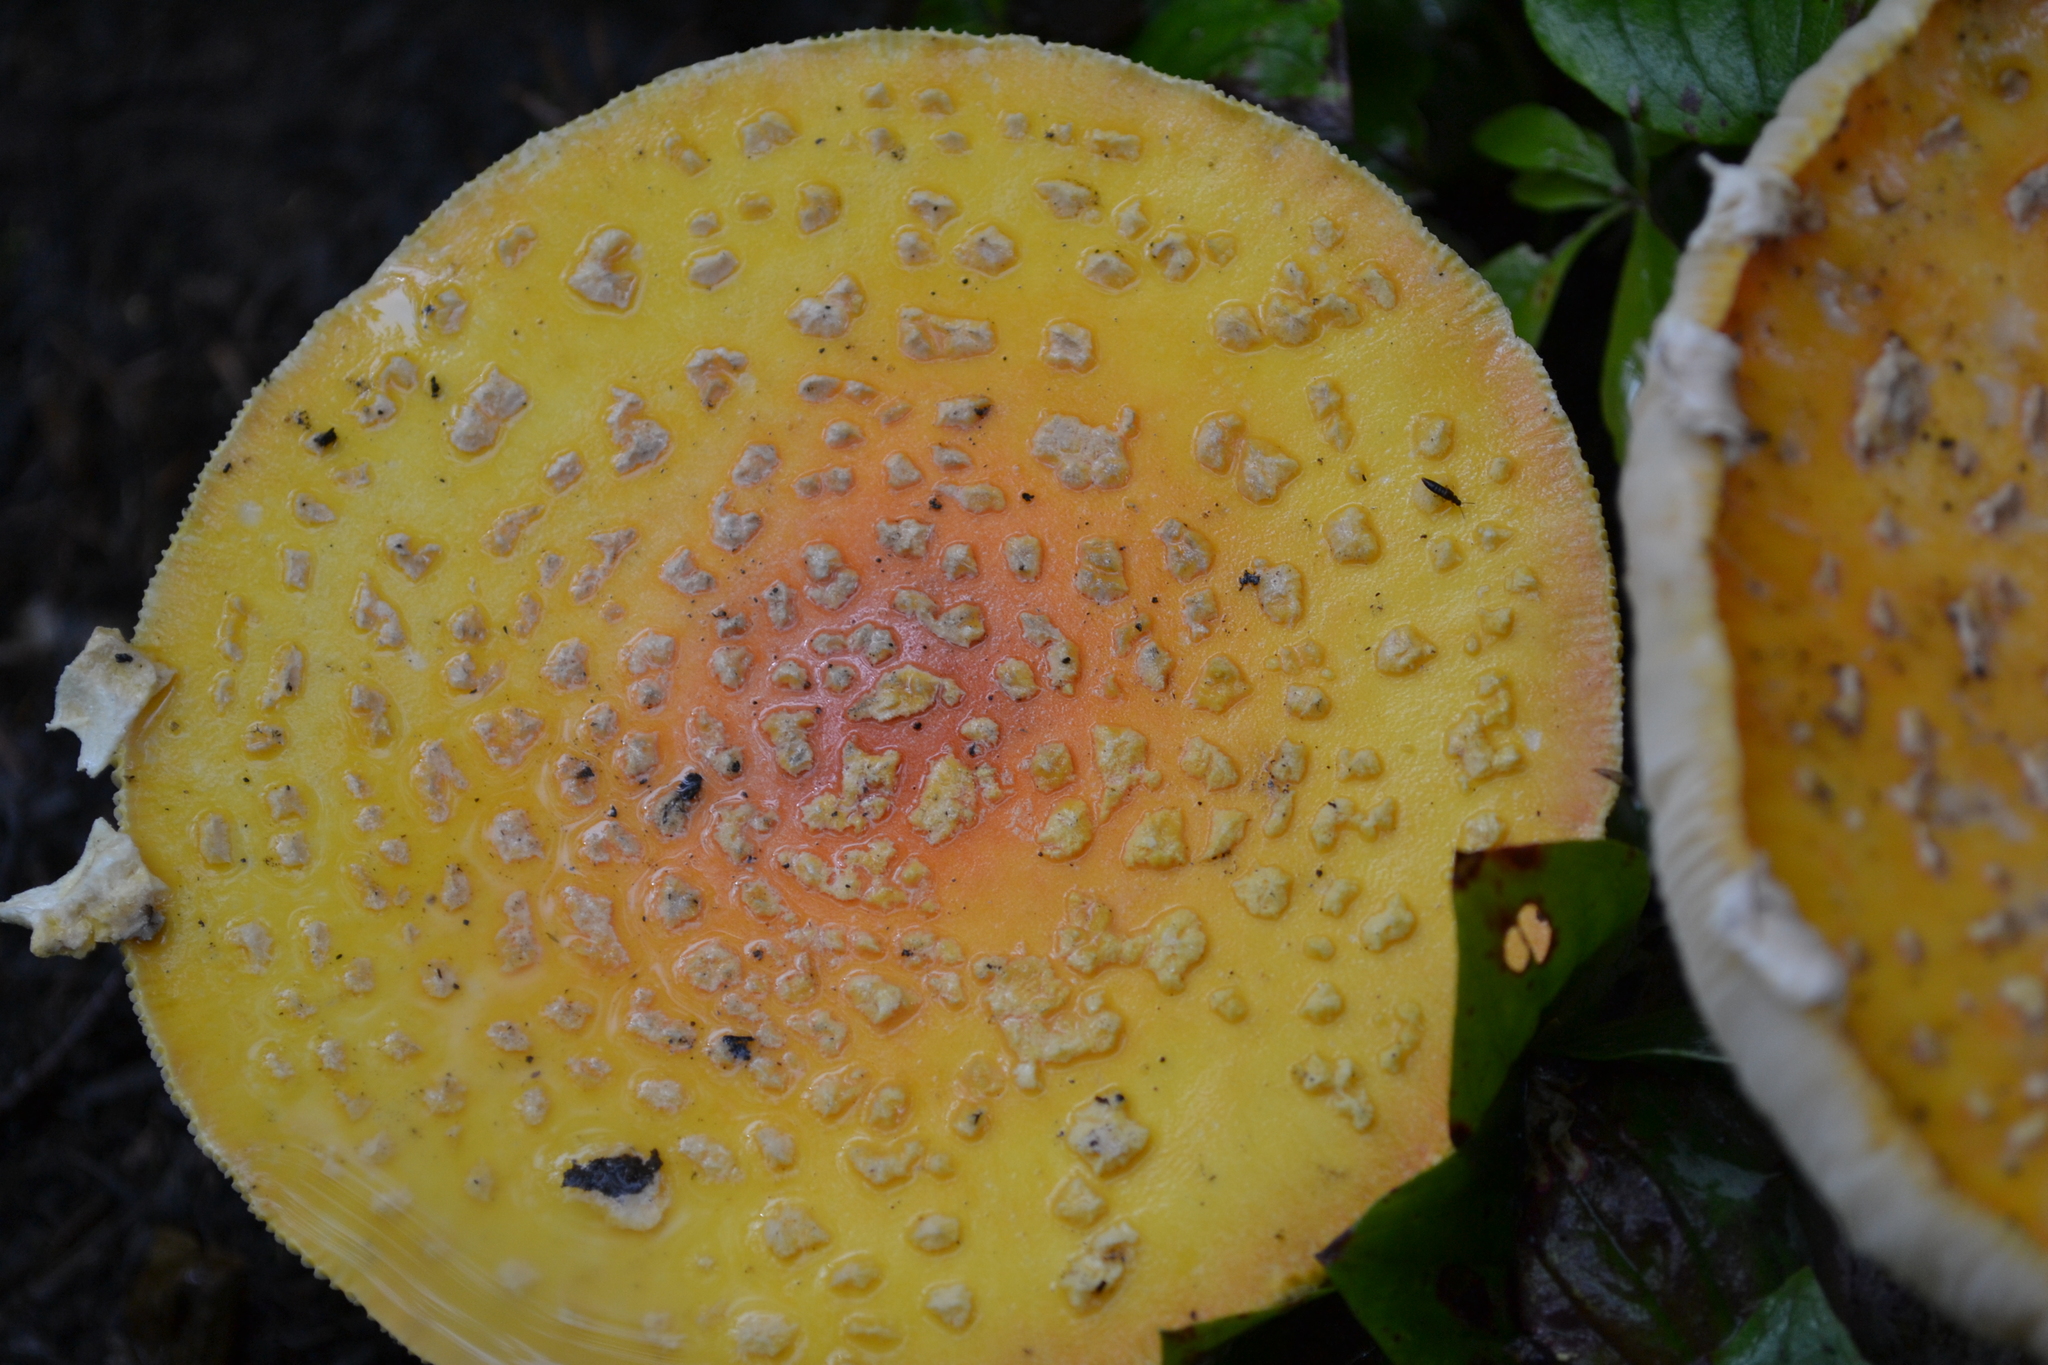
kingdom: Fungi
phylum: Basidiomycota
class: Agaricomycetes
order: Agaricales
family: Amanitaceae
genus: Amanita
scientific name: Amanita muscaria
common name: Fly agaric
